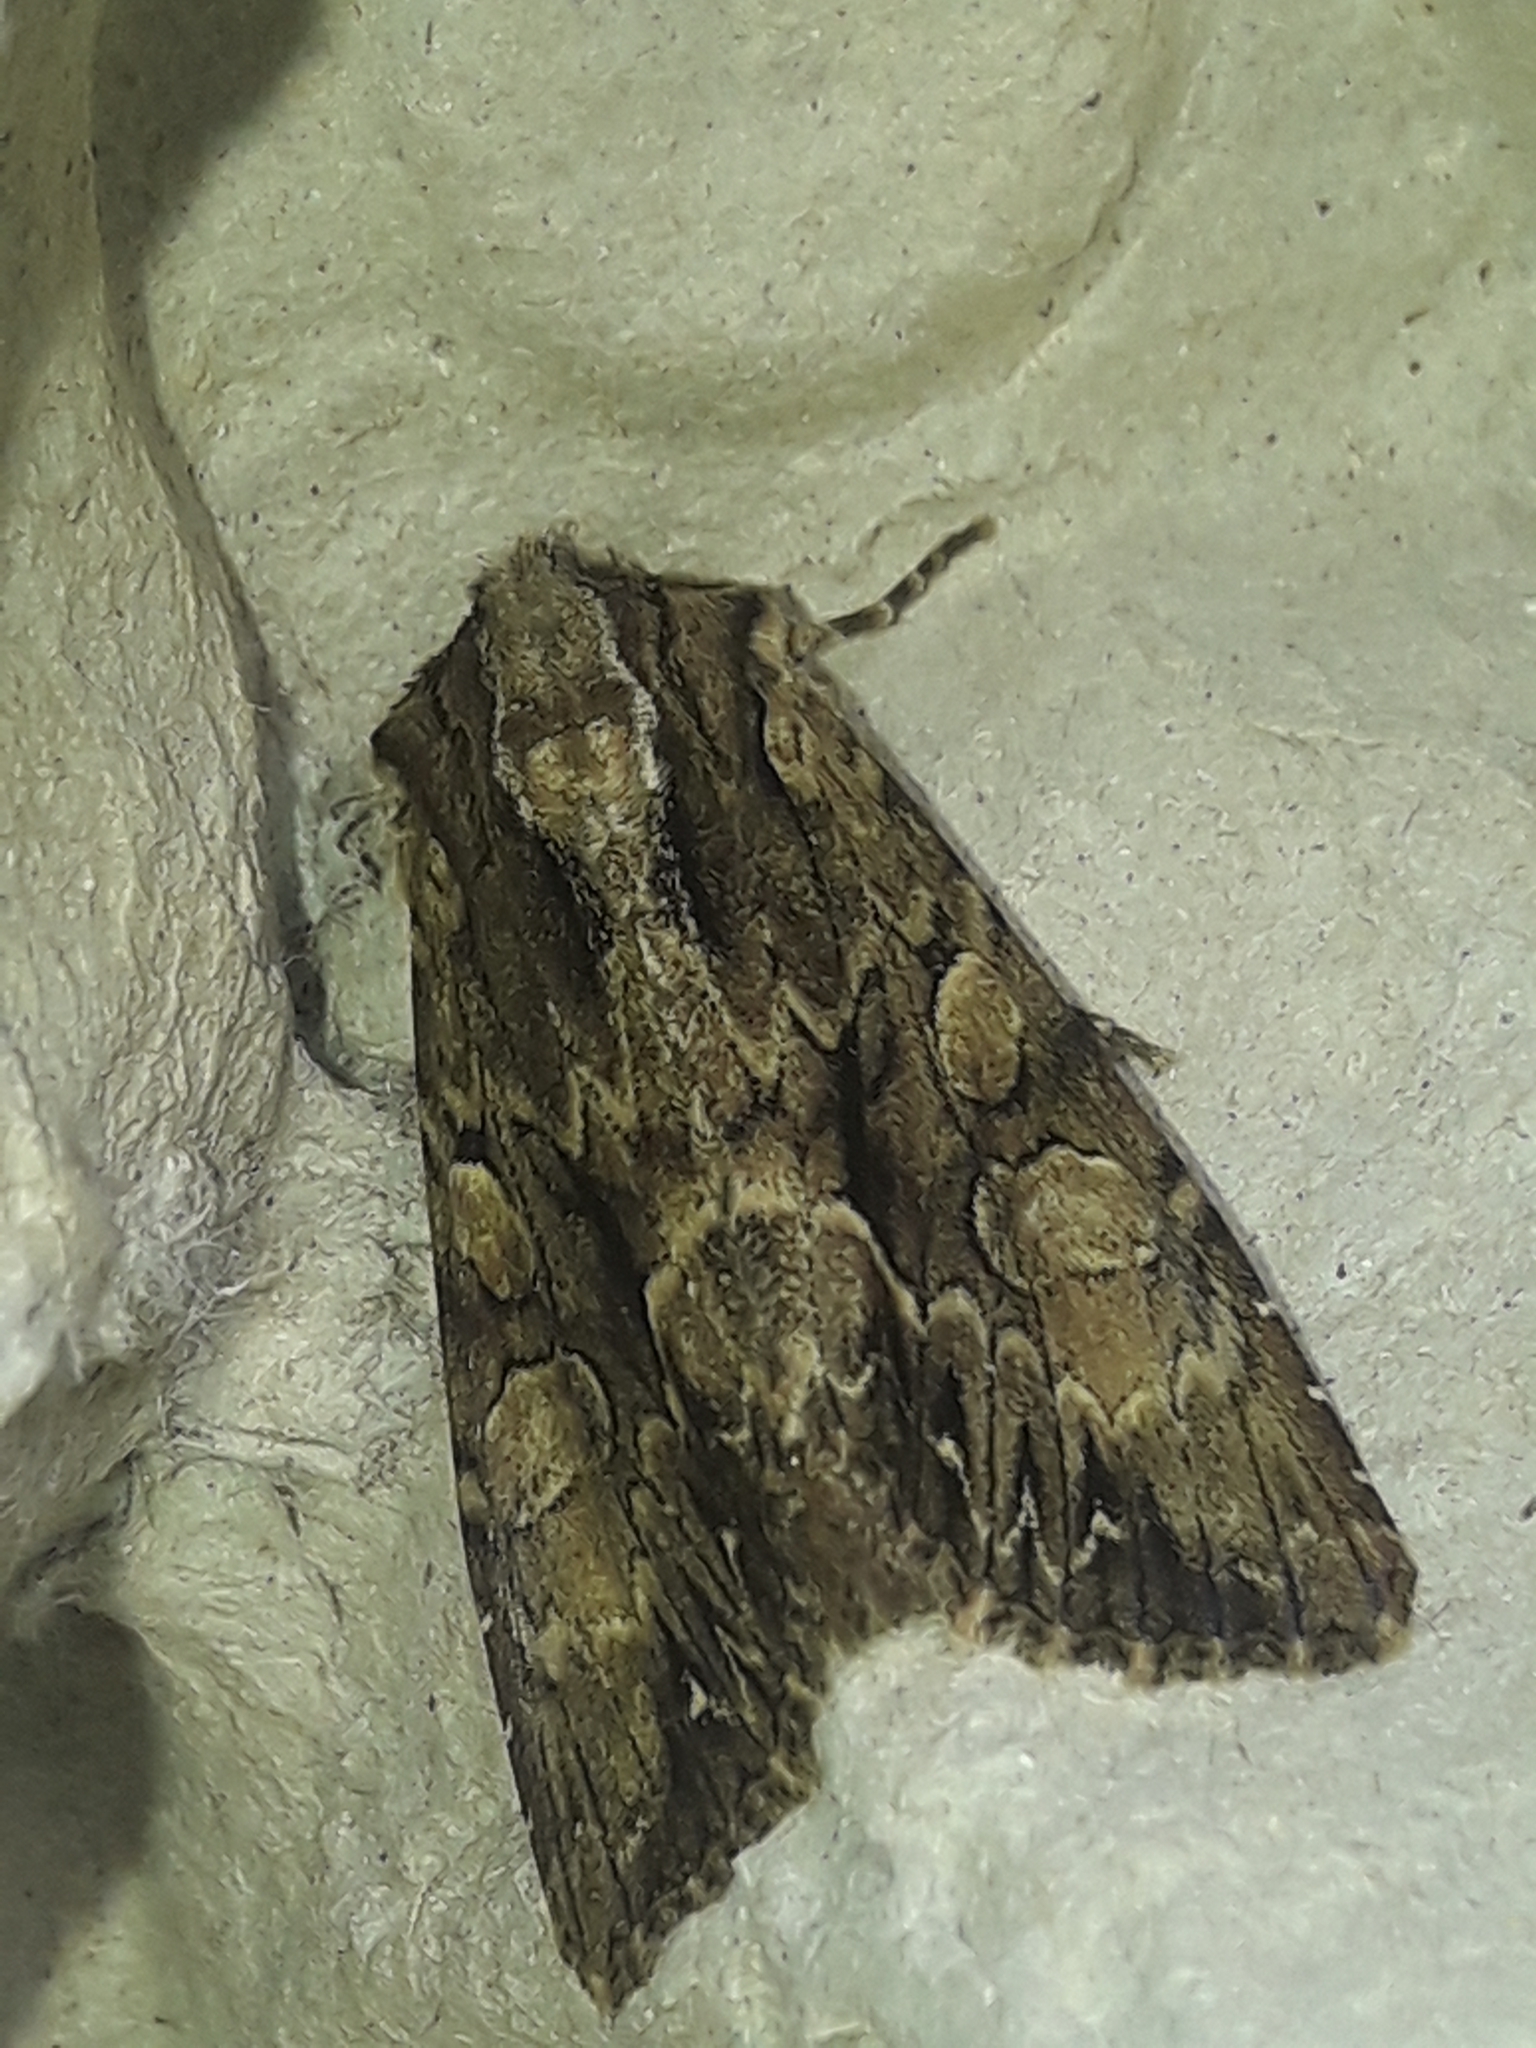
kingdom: Animalia
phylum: Arthropoda
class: Insecta
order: Lepidoptera
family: Noctuidae
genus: Apamea
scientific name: Apamea monoglypha
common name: Dark arches
